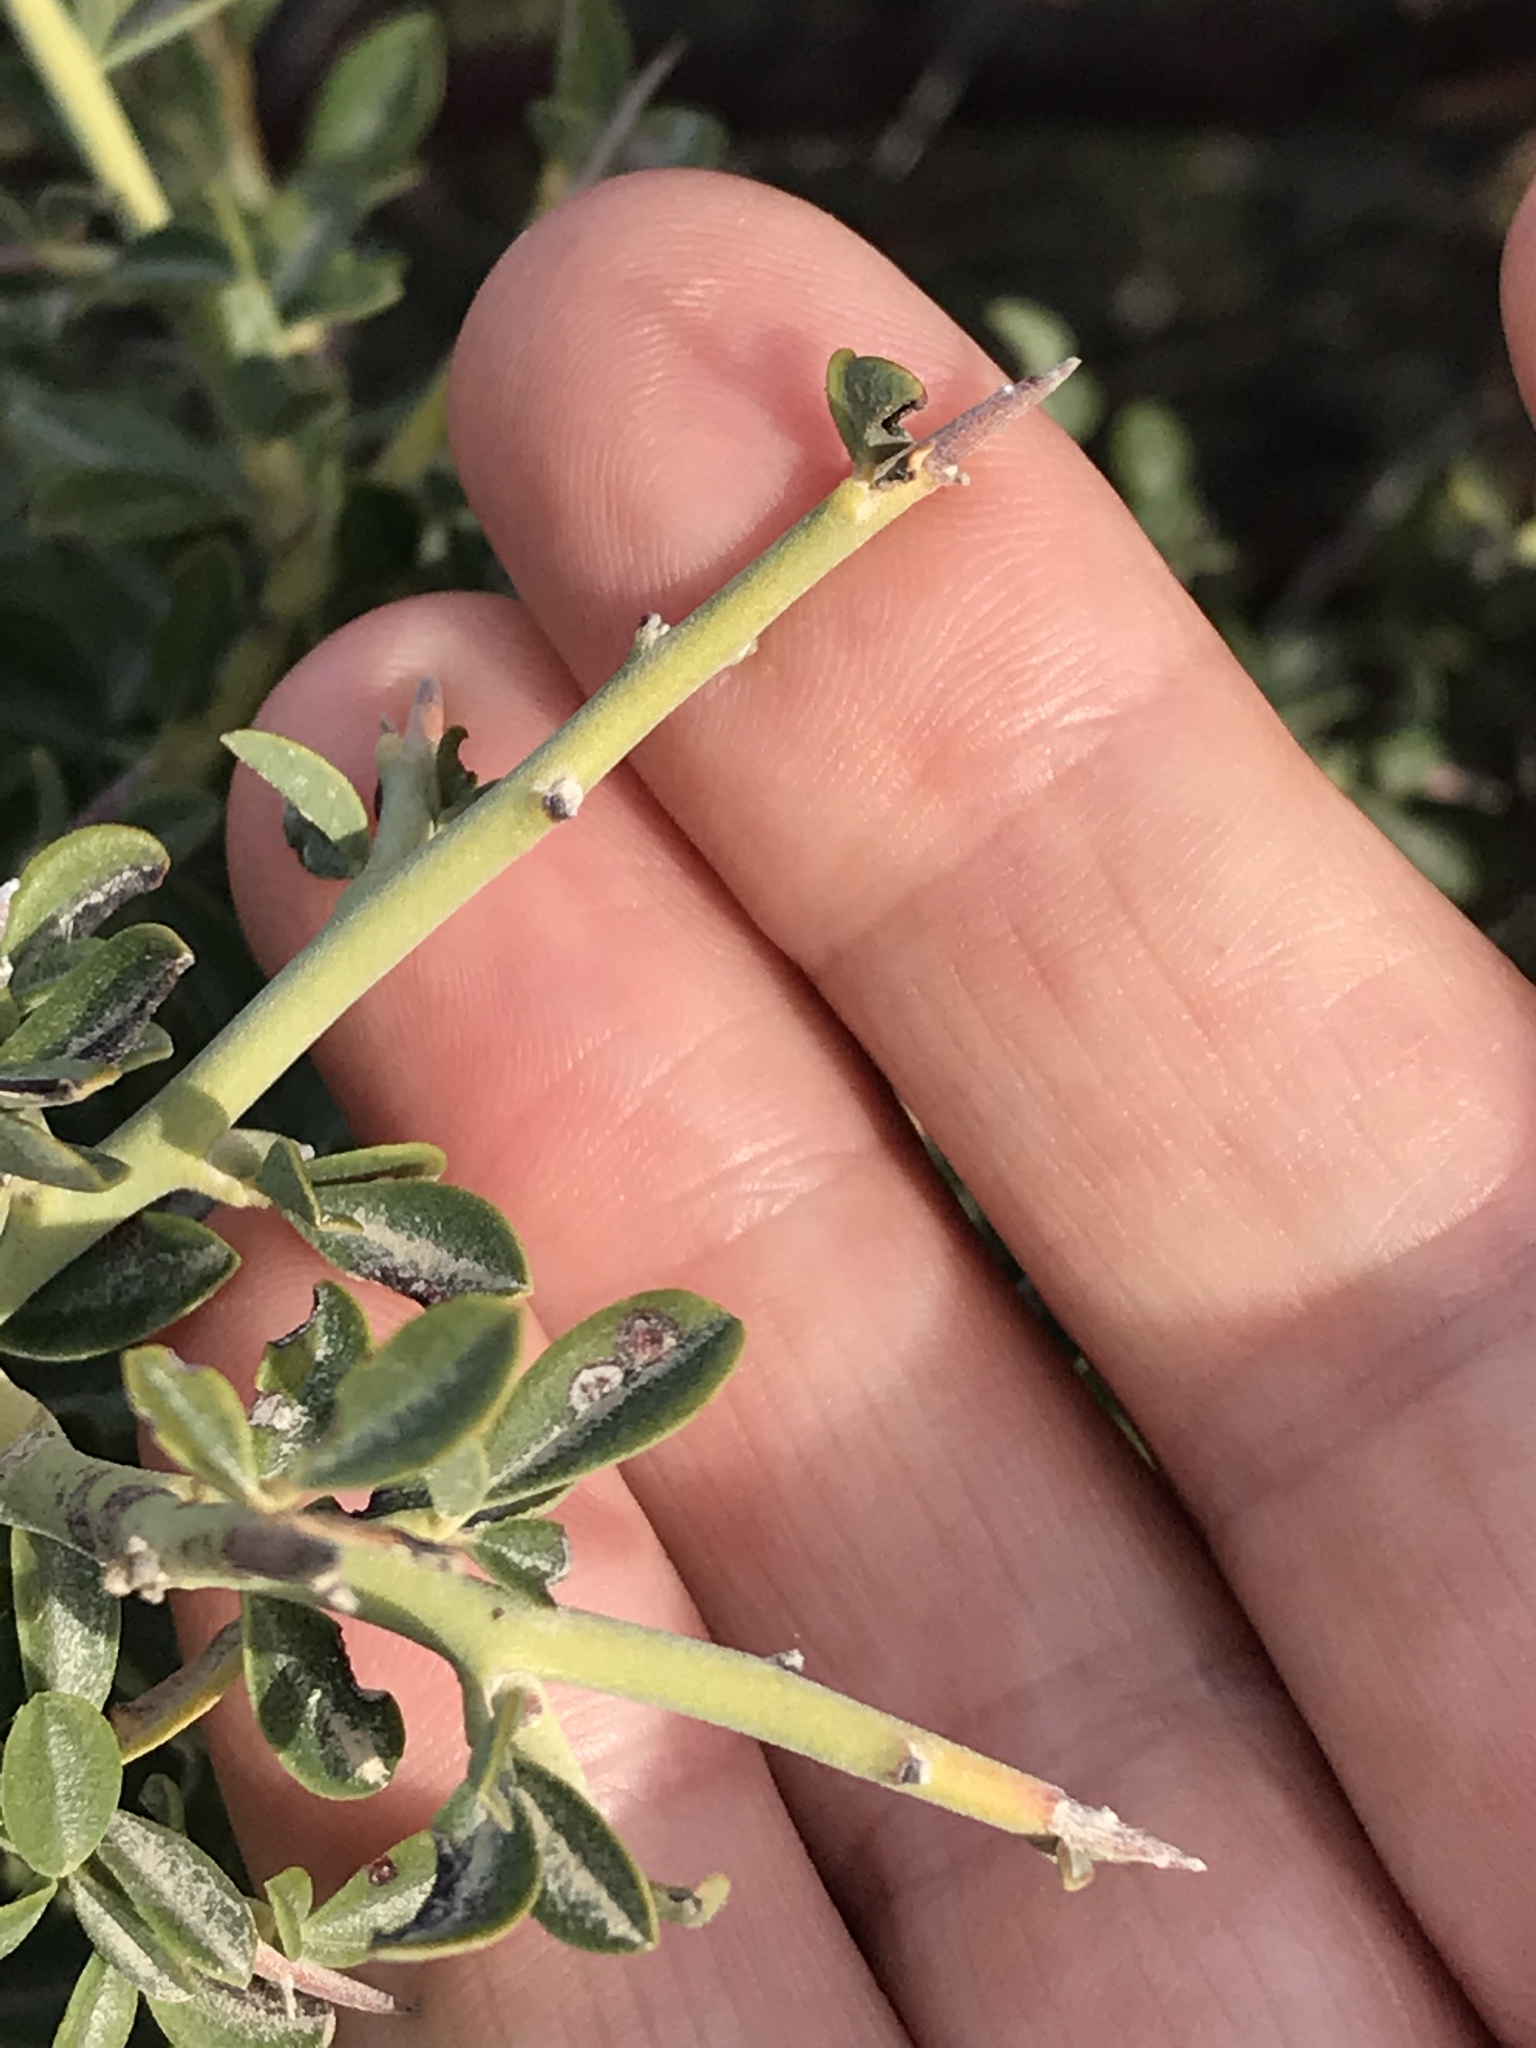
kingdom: Plantae
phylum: Tracheophyta
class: Magnoliopsida
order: Fabales
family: Fabaceae
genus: Pickeringia
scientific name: Pickeringia montana
